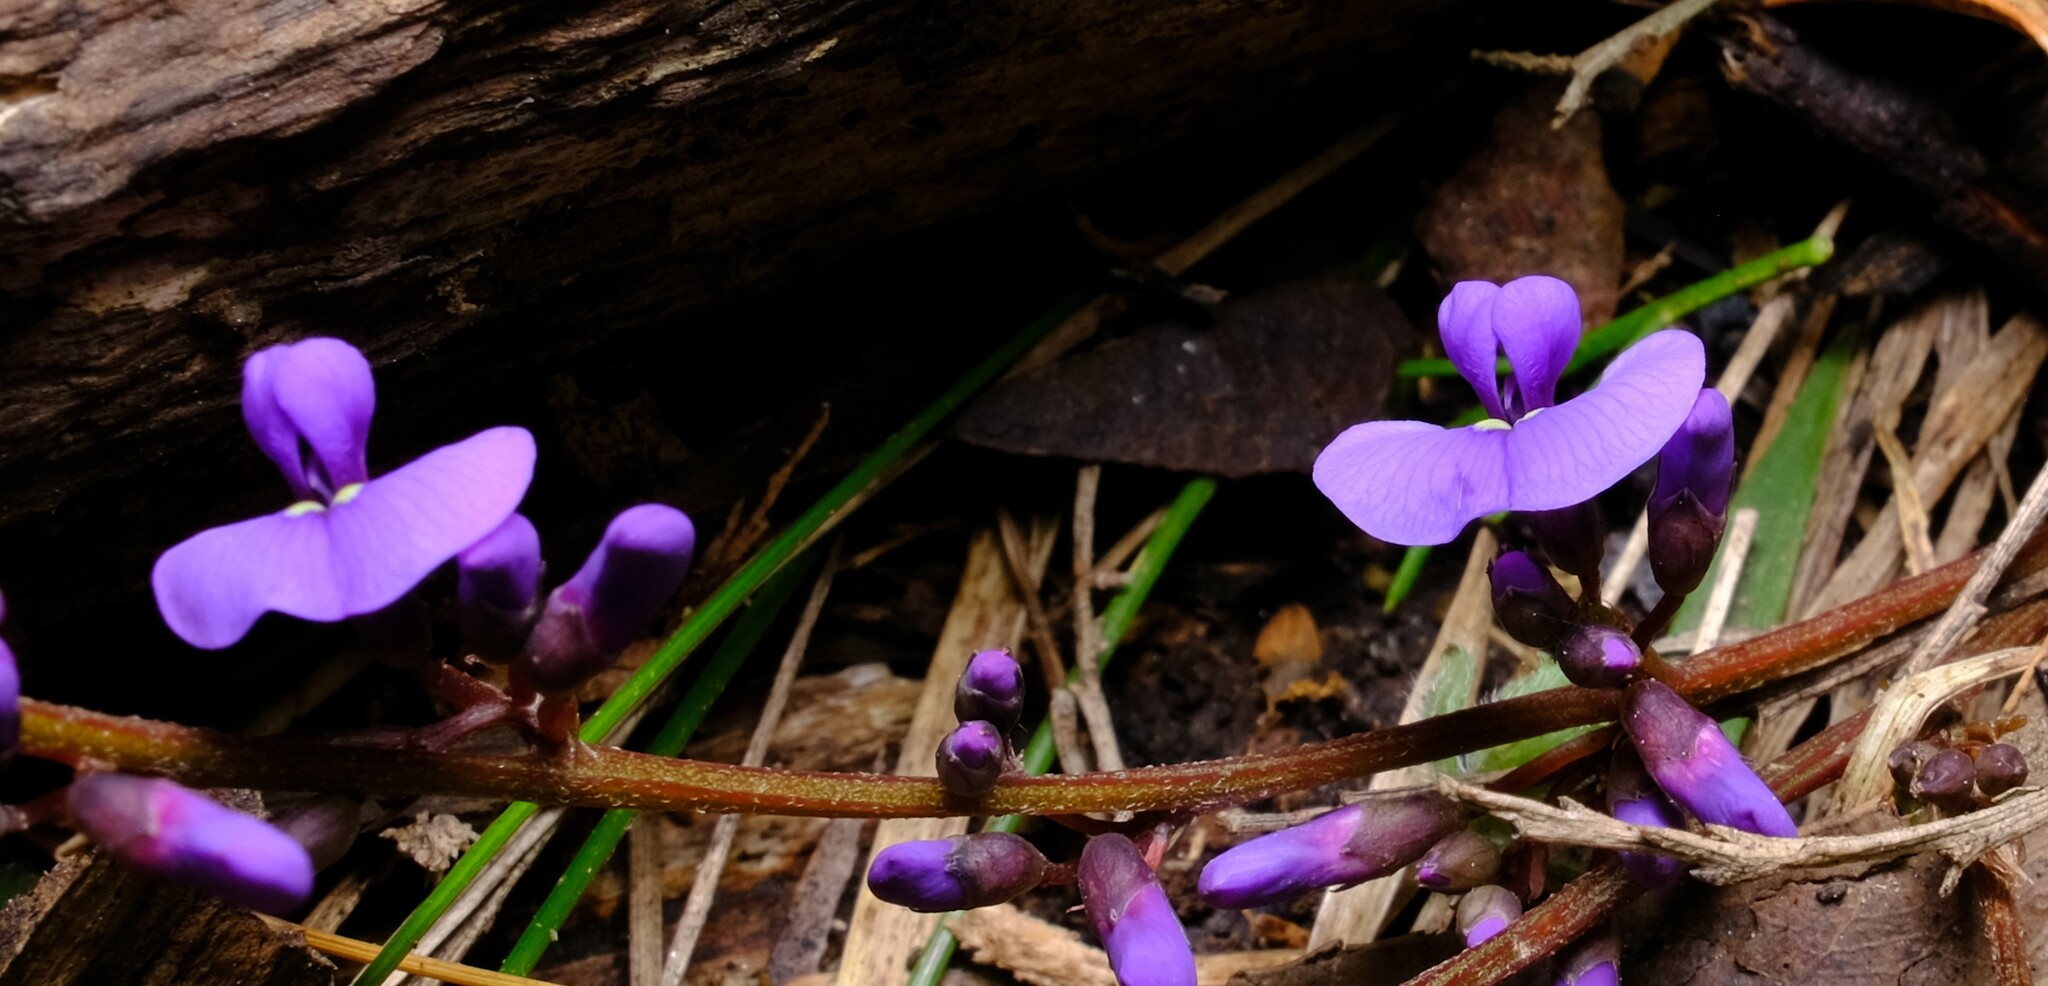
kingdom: Plantae
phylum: Tracheophyta
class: Magnoliopsida
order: Fabales
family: Fabaceae
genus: Hardenbergia
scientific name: Hardenbergia violacea
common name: Coral-pea
